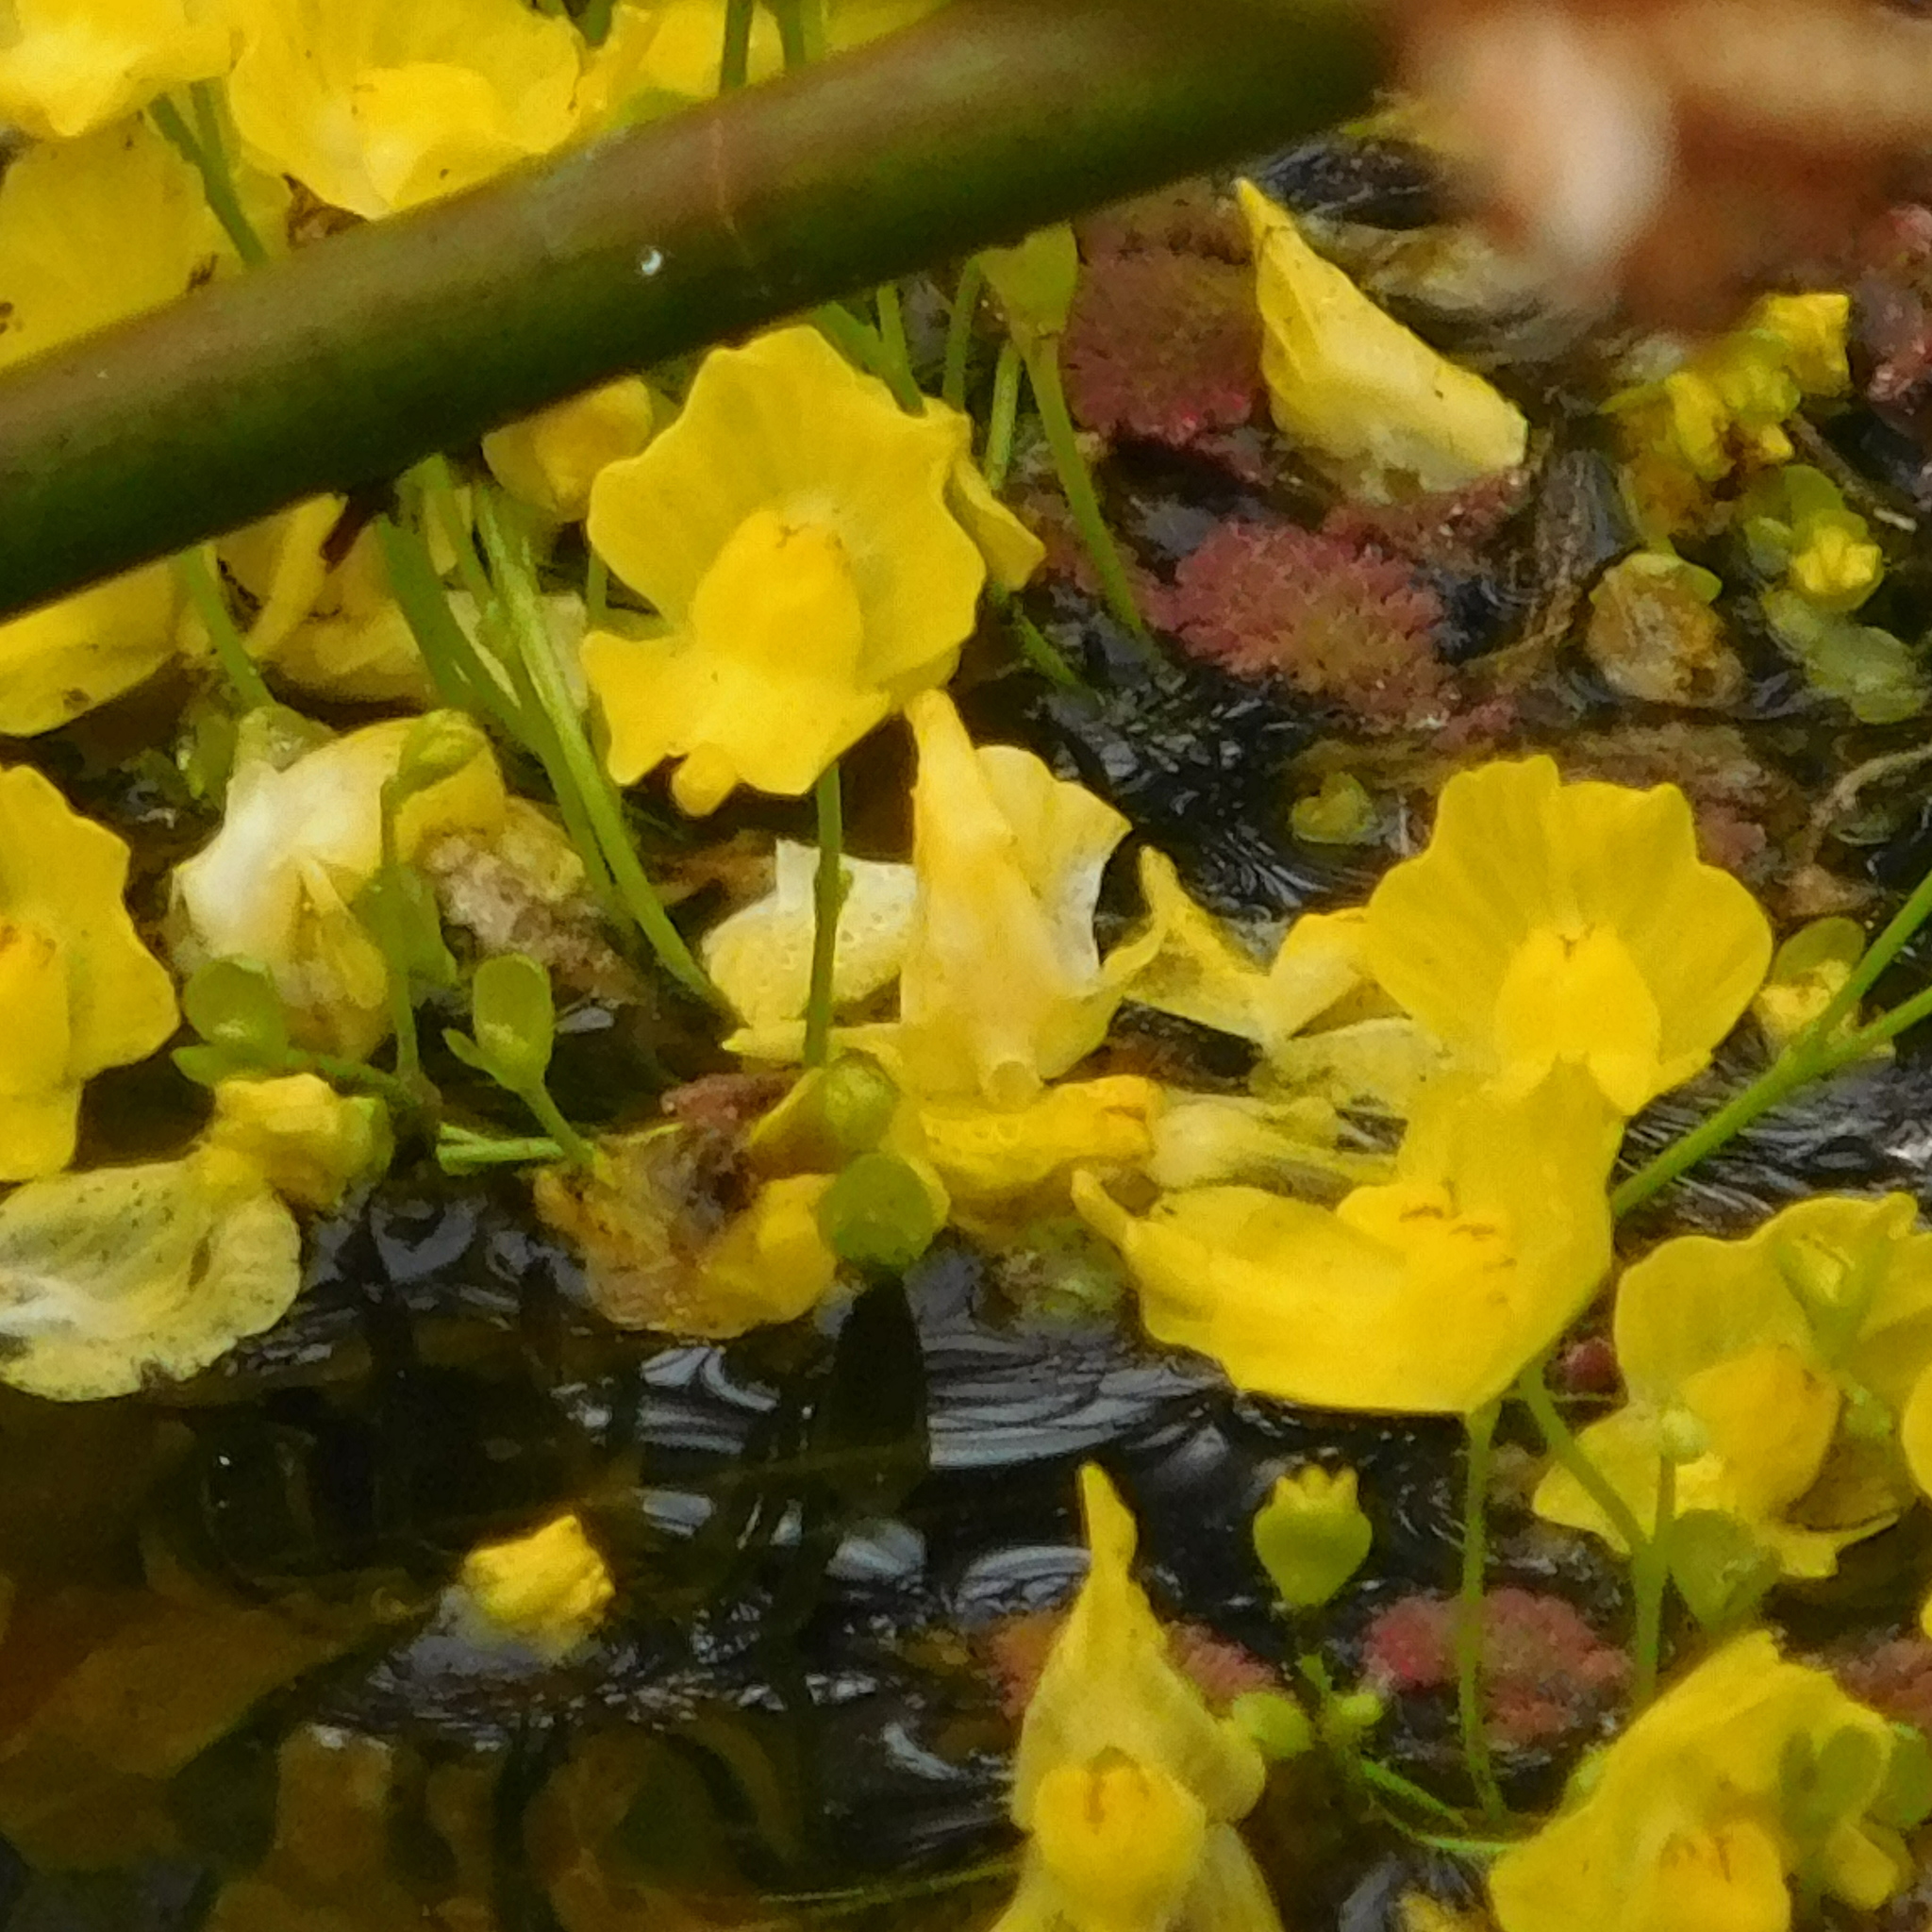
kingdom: Plantae
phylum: Tracheophyta
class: Magnoliopsida
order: Lamiales
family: Lentibulariaceae
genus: Utricularia
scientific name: Utricularia gibba
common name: Humped bladderwort
